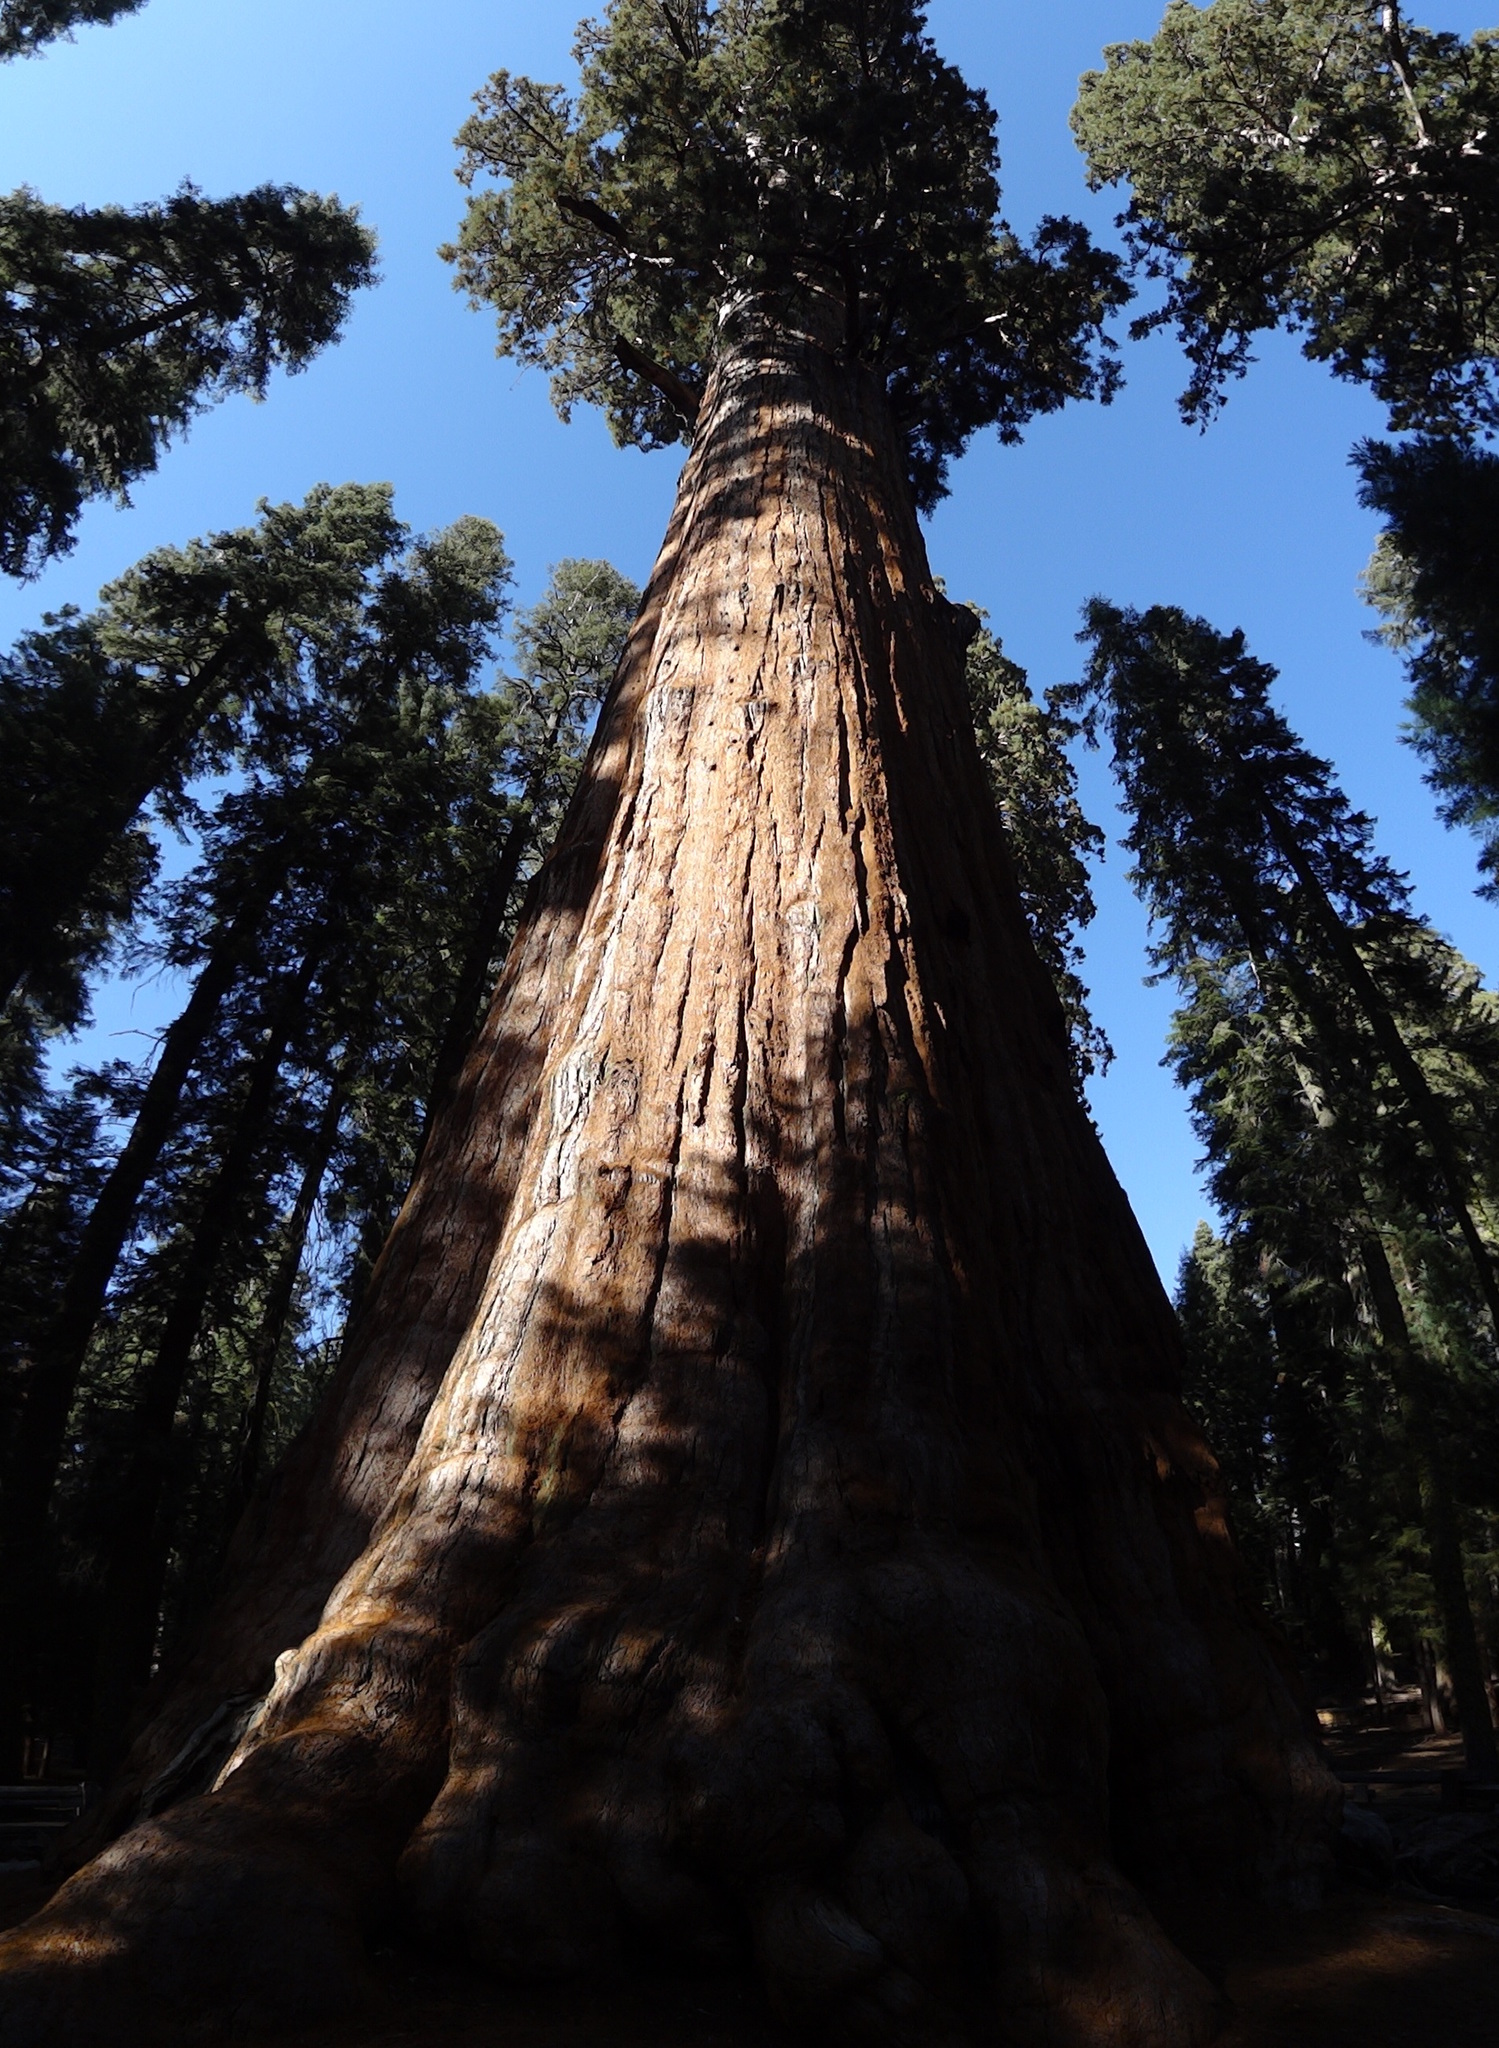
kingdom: Plantae
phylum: Tracheophyta
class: Pinopsida
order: Pinales
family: Cupressaceae
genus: Sequoiadendron
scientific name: Sequoiadendron giganteum
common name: Wellingtonia
